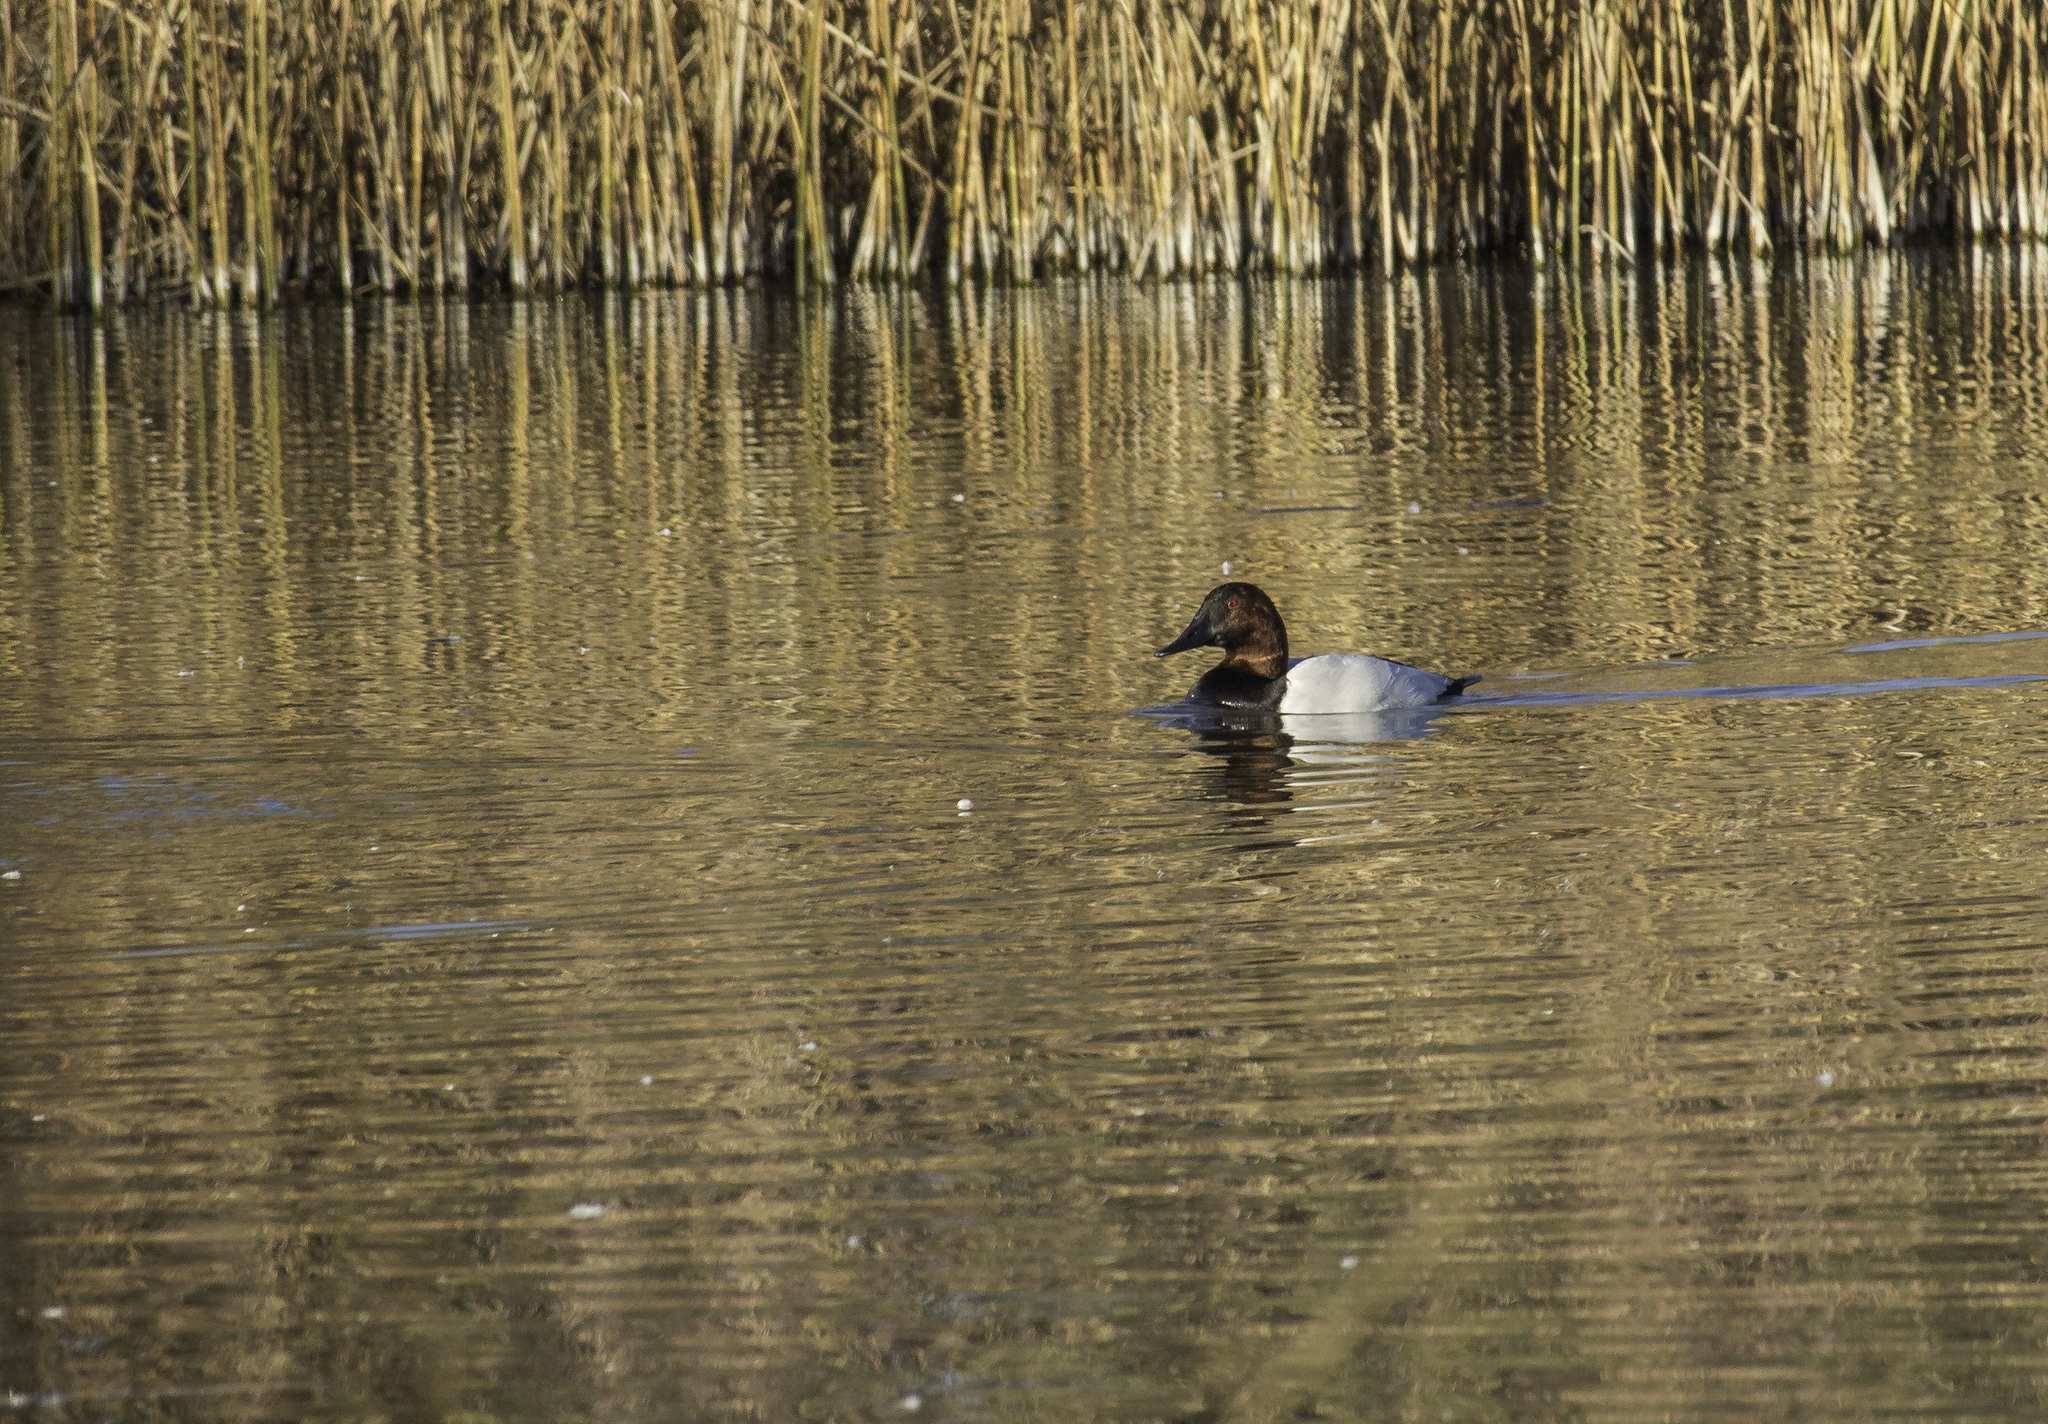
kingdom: Animalia
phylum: Chordata
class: Aves
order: Anseriformes
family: Anatidae
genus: Aythya
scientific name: Aythya valisineria
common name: Canvasback
